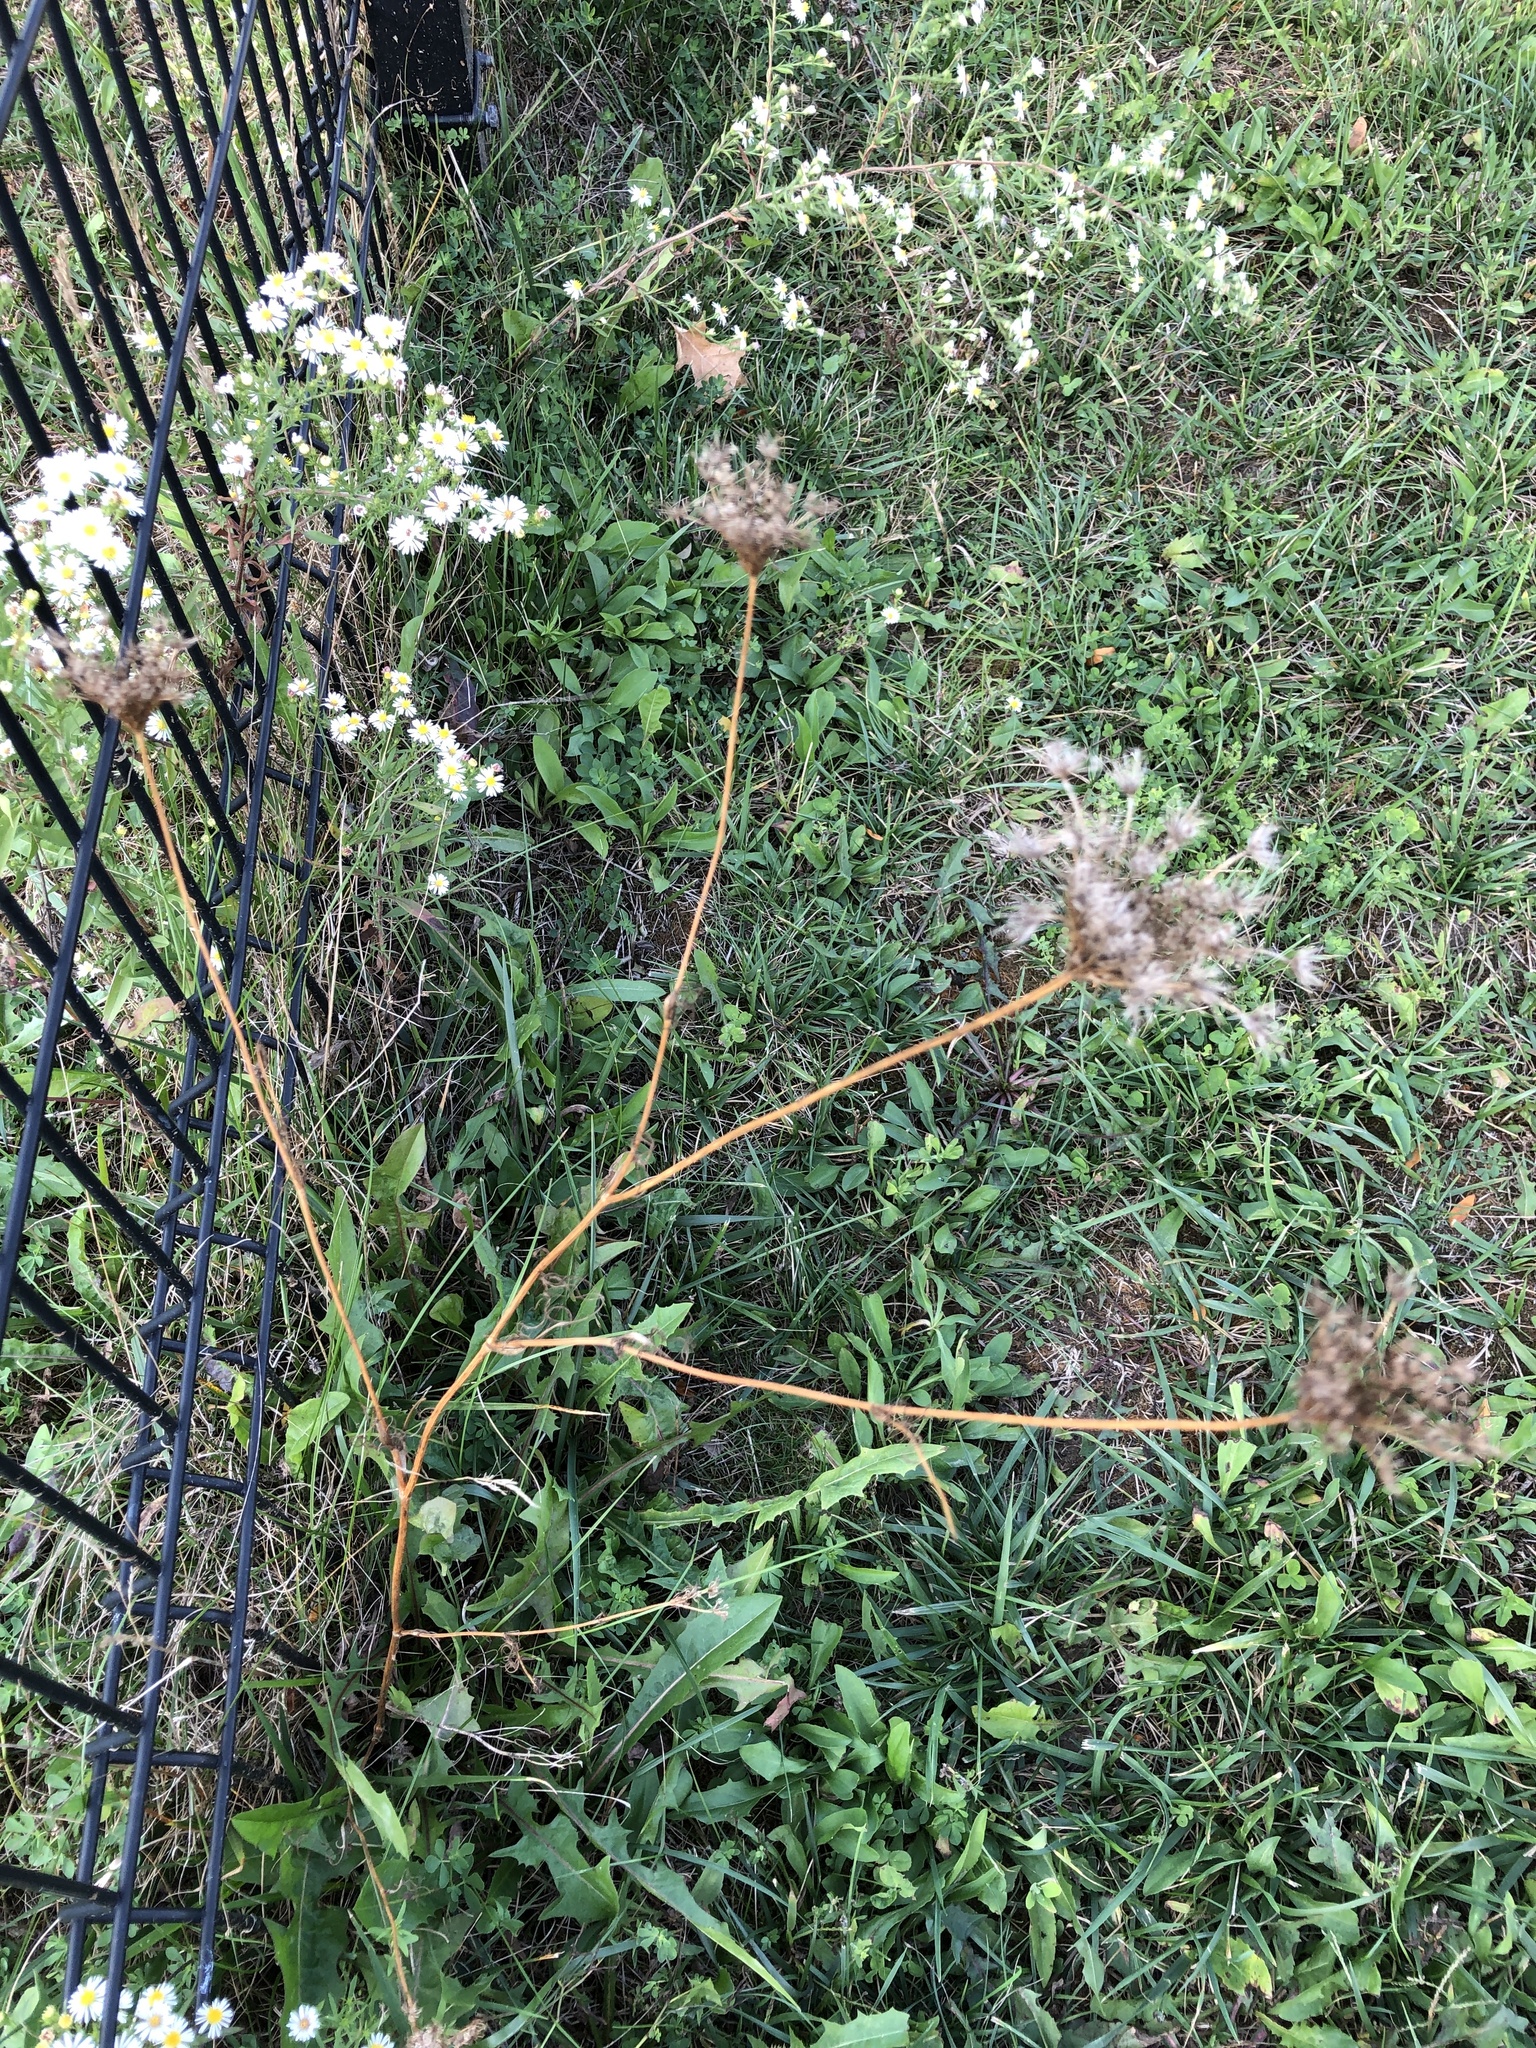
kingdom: Plantae
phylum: Tracheophyta
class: Magnoliopsida
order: Apiales
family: Apiaceae
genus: Daucus
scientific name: Daucus carota
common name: Wild carrot
